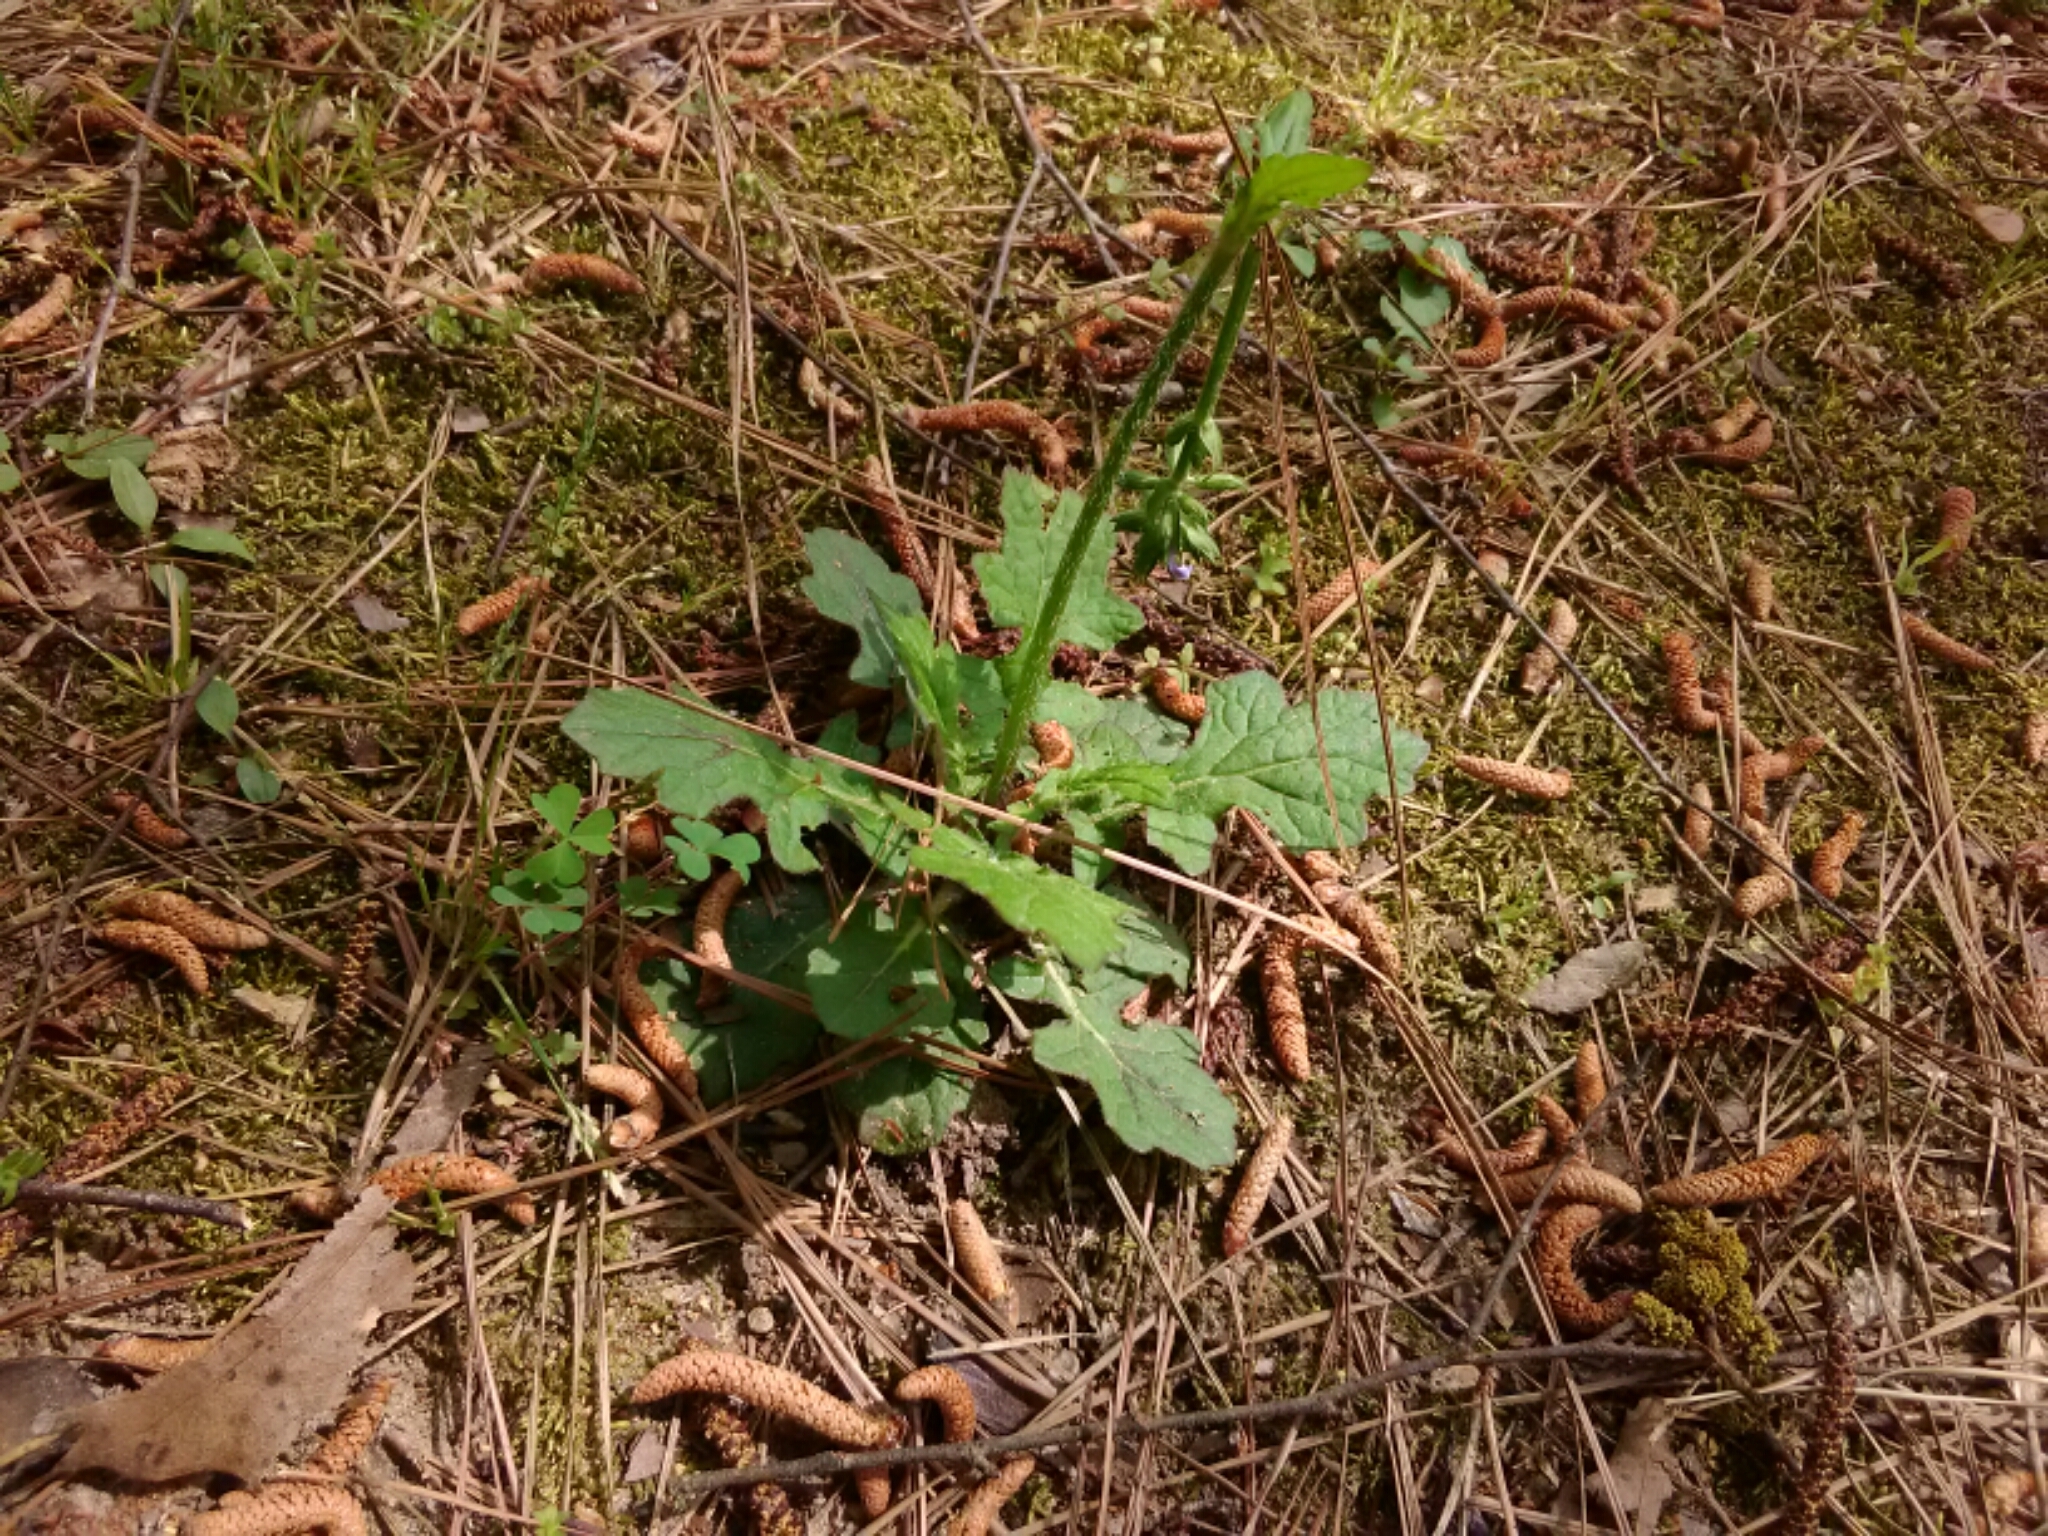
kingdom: Plantae
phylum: Tracheophyta
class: Magnoliopsida
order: Lamiales
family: Lamiaceae
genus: Salvia
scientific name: Salvia lyrata
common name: Cancerweed
